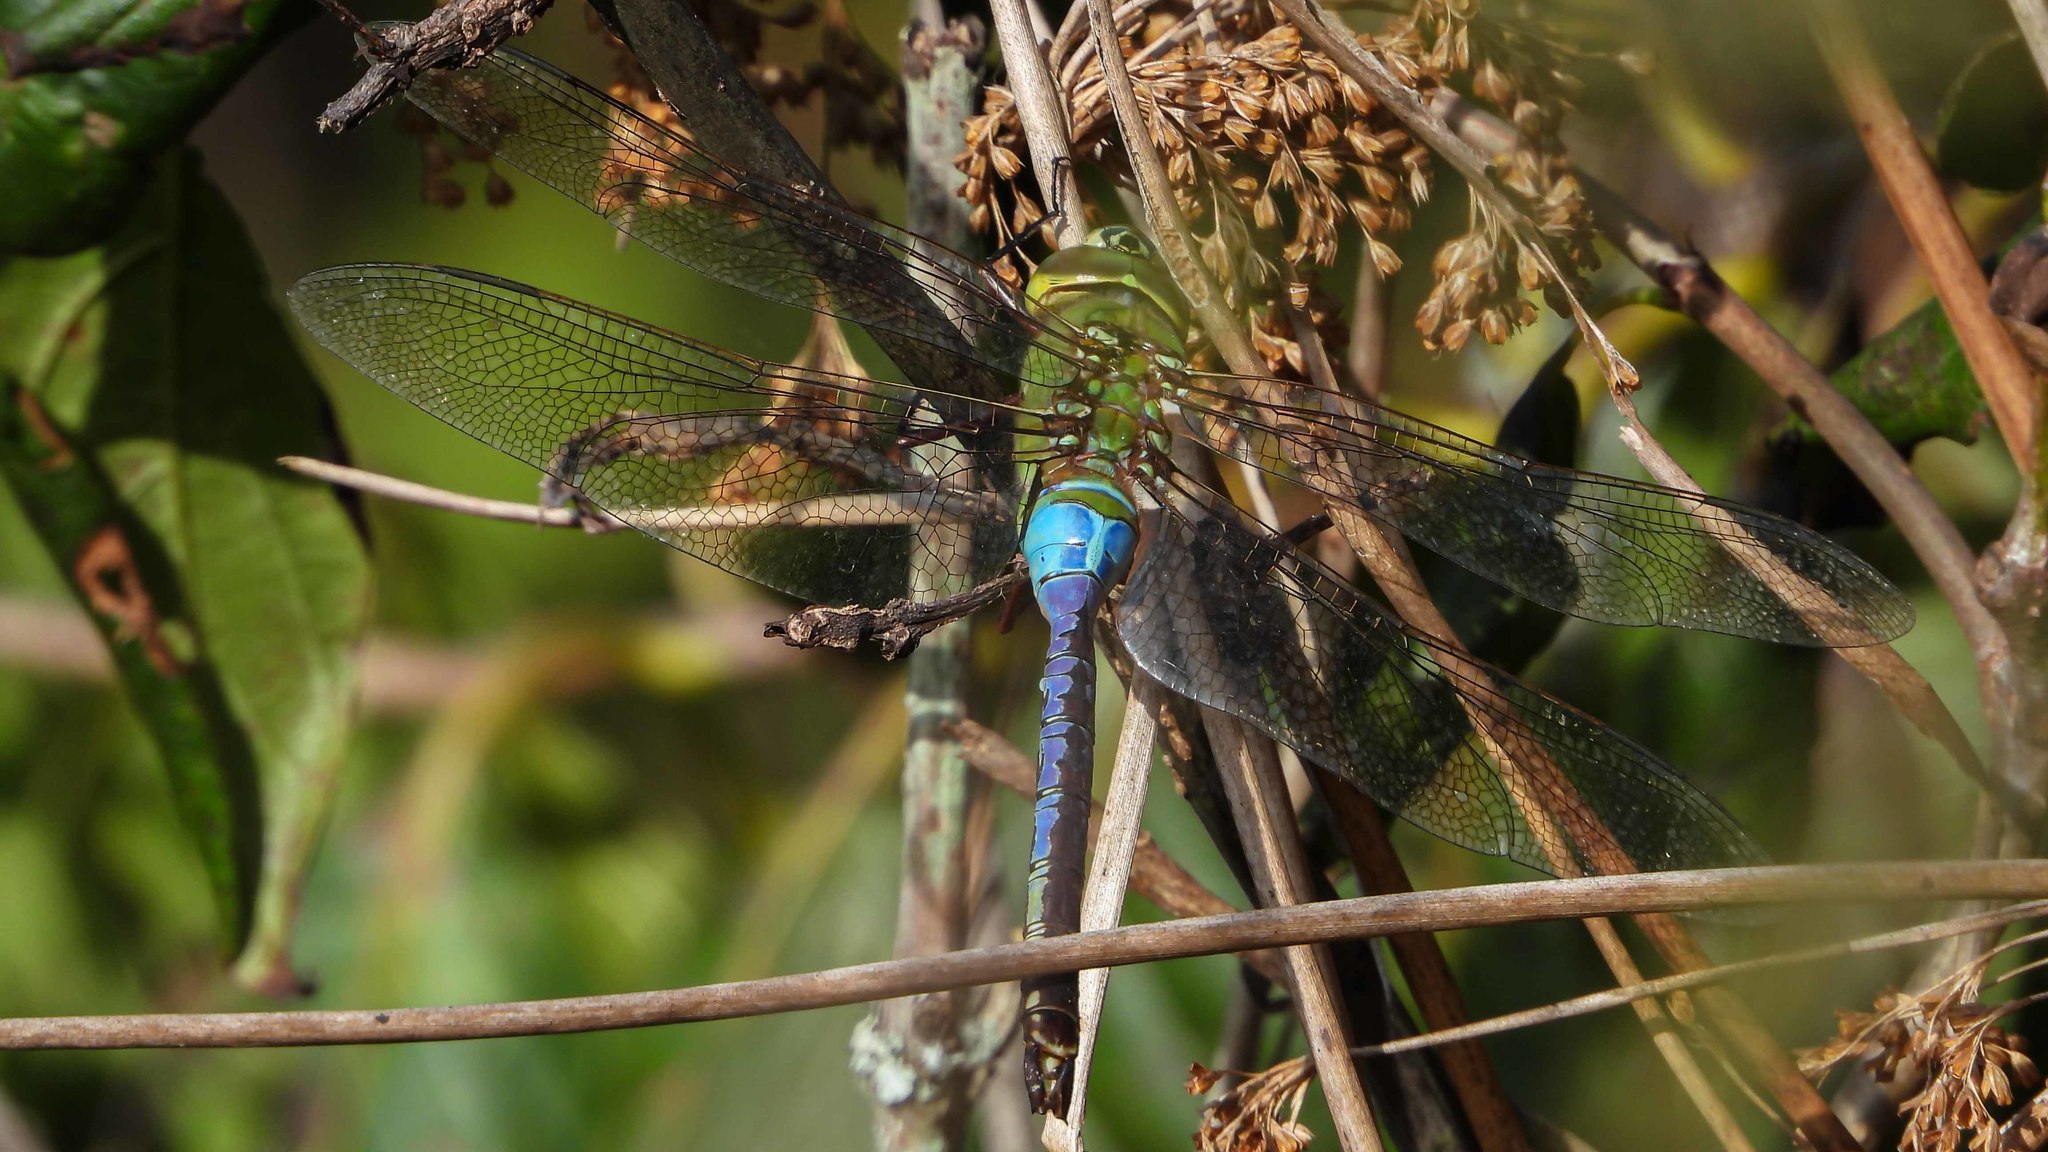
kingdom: Animalia
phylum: Arthropoda
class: Insecta
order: Odonata
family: Aeshnidae
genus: Anax
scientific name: Anax junius
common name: Common green darner
